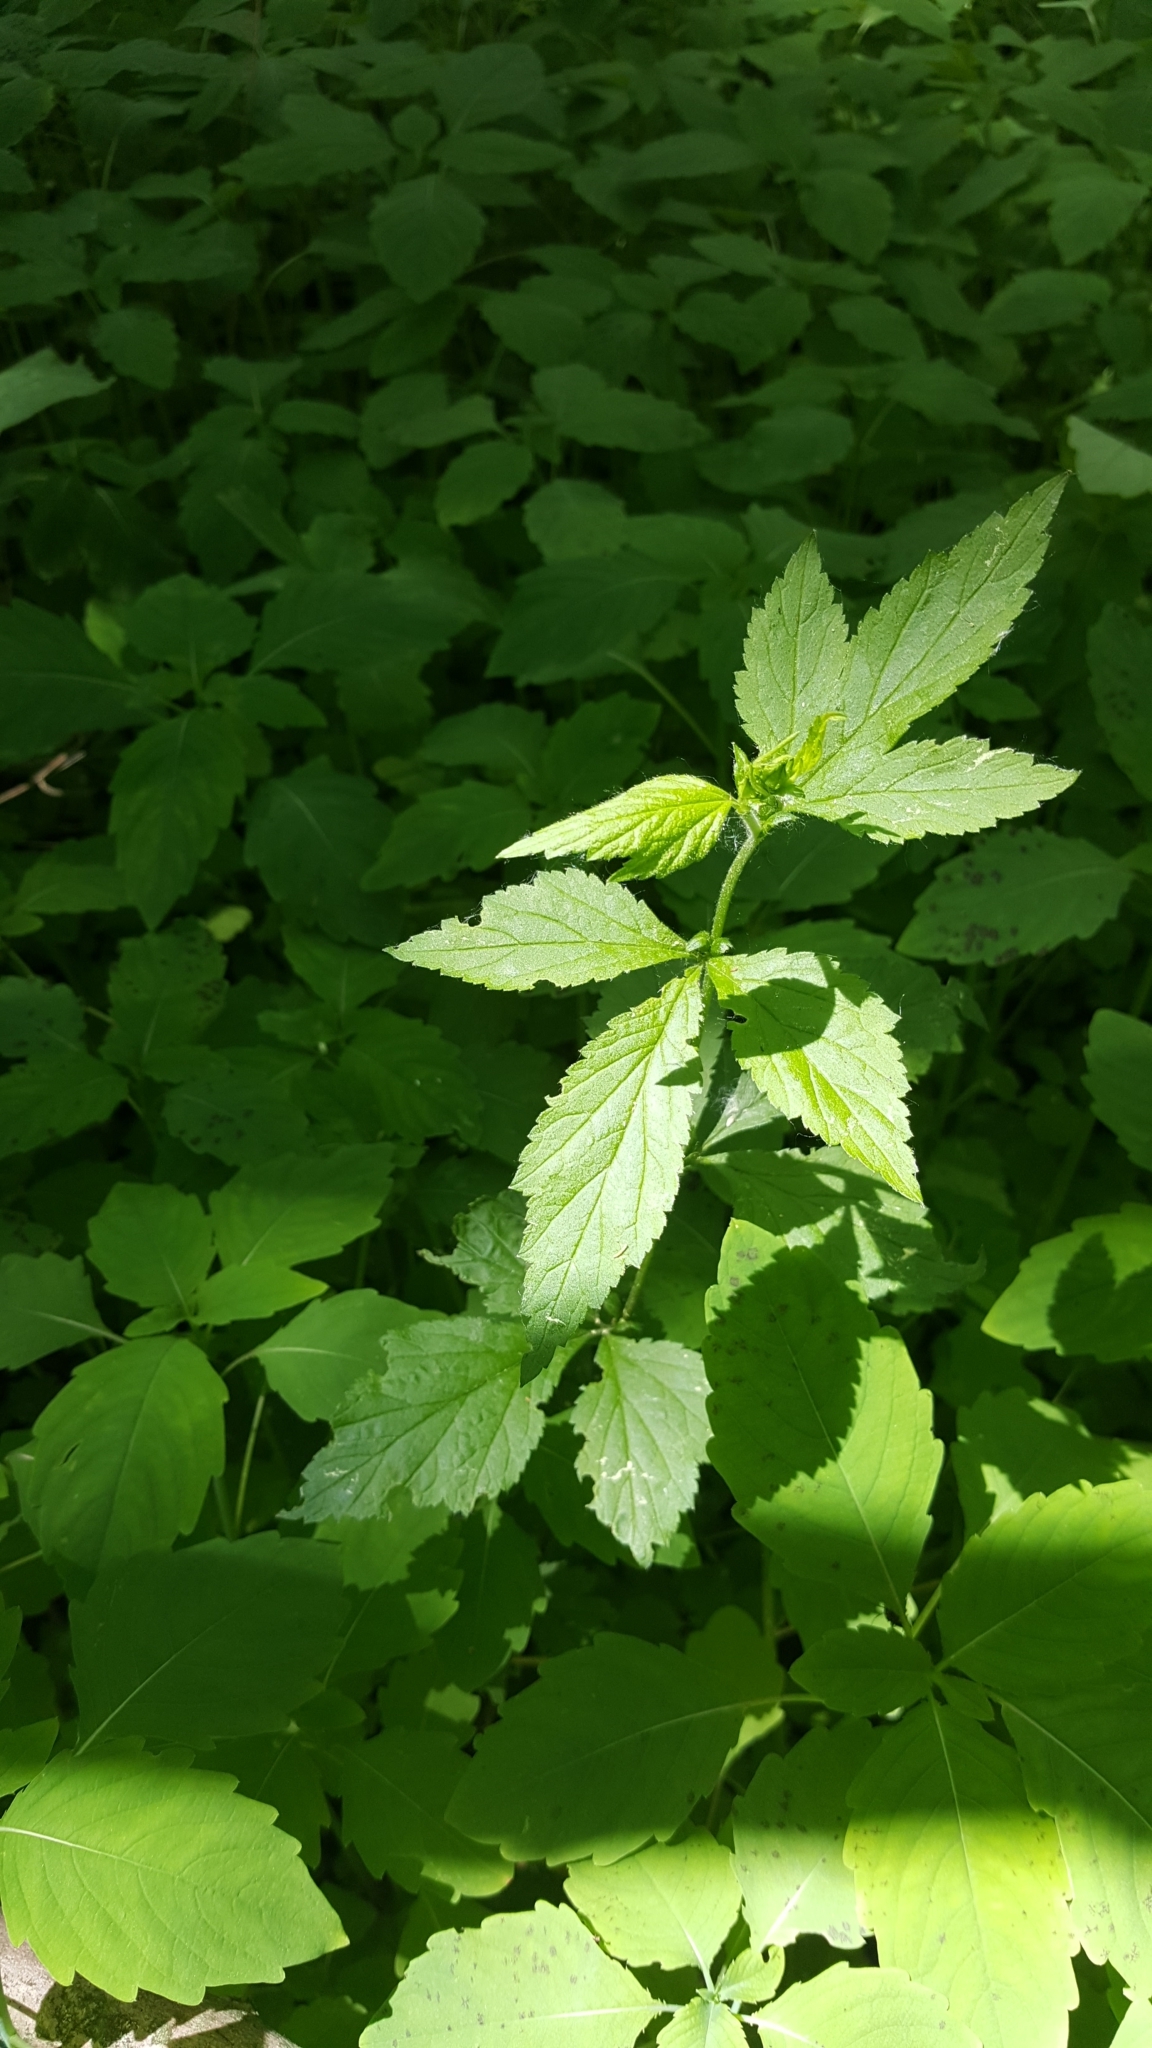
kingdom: Plantae
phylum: Tracheophyta
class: Magnoliopsida
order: Rosales
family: Rosaceae
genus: Geum
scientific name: Geum canadense
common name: White avens
